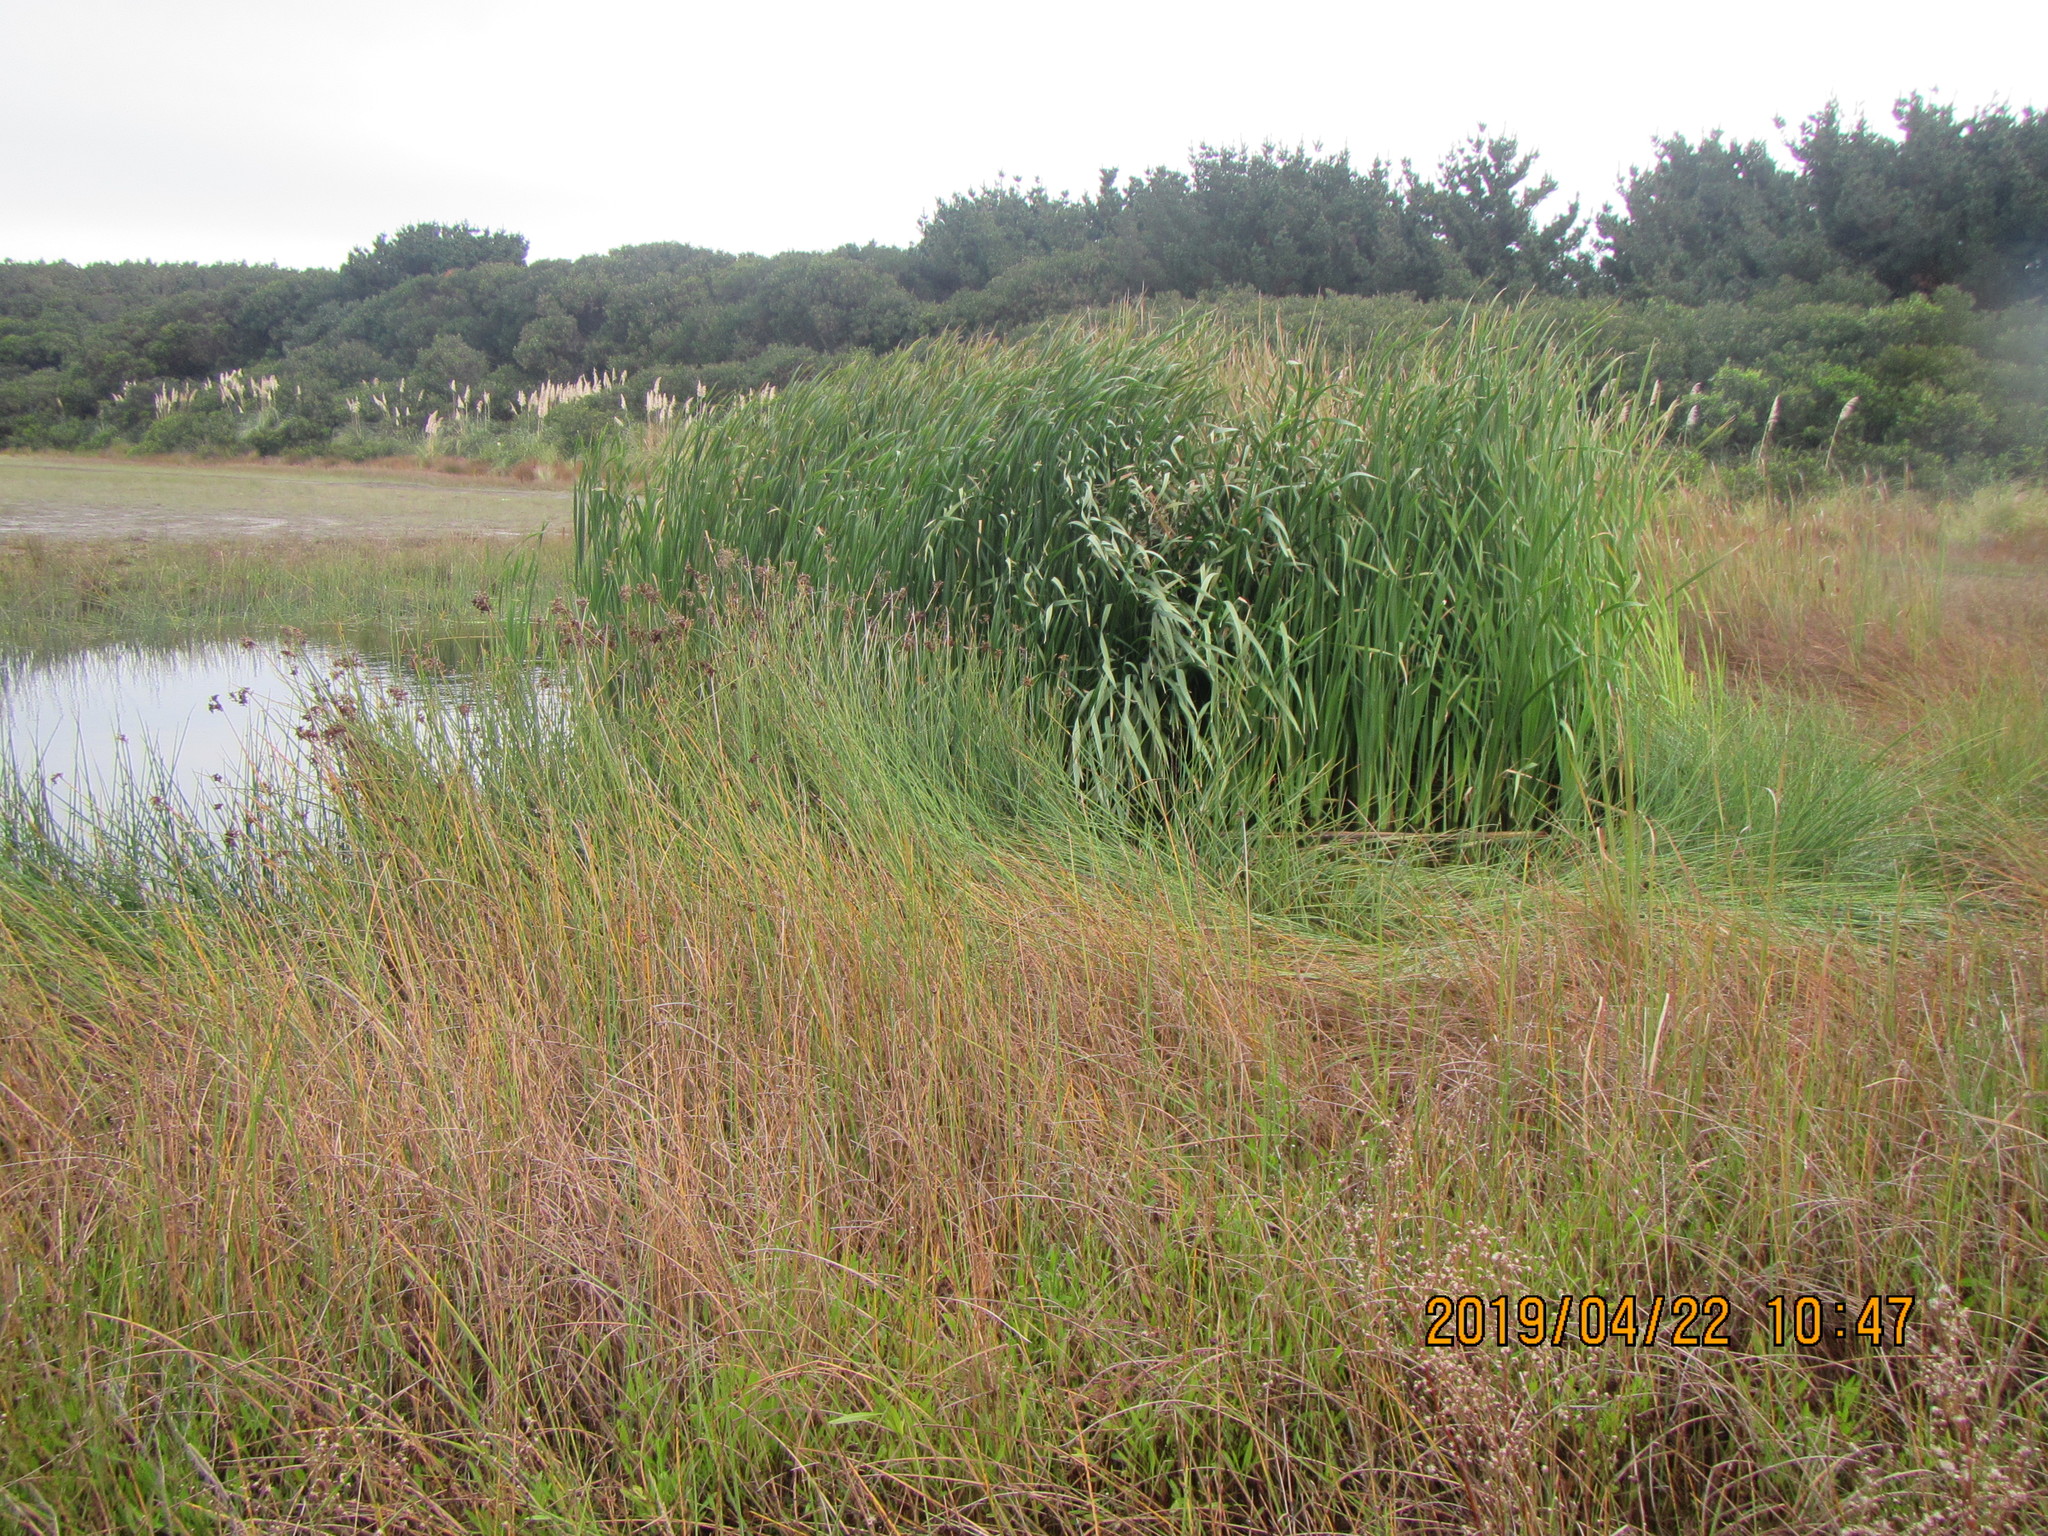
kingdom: Plantae
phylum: Tracheophyta
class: Liliopsida
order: Poales
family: Typhaceae
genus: Typha
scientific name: Typha orientalis
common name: Bullrush
